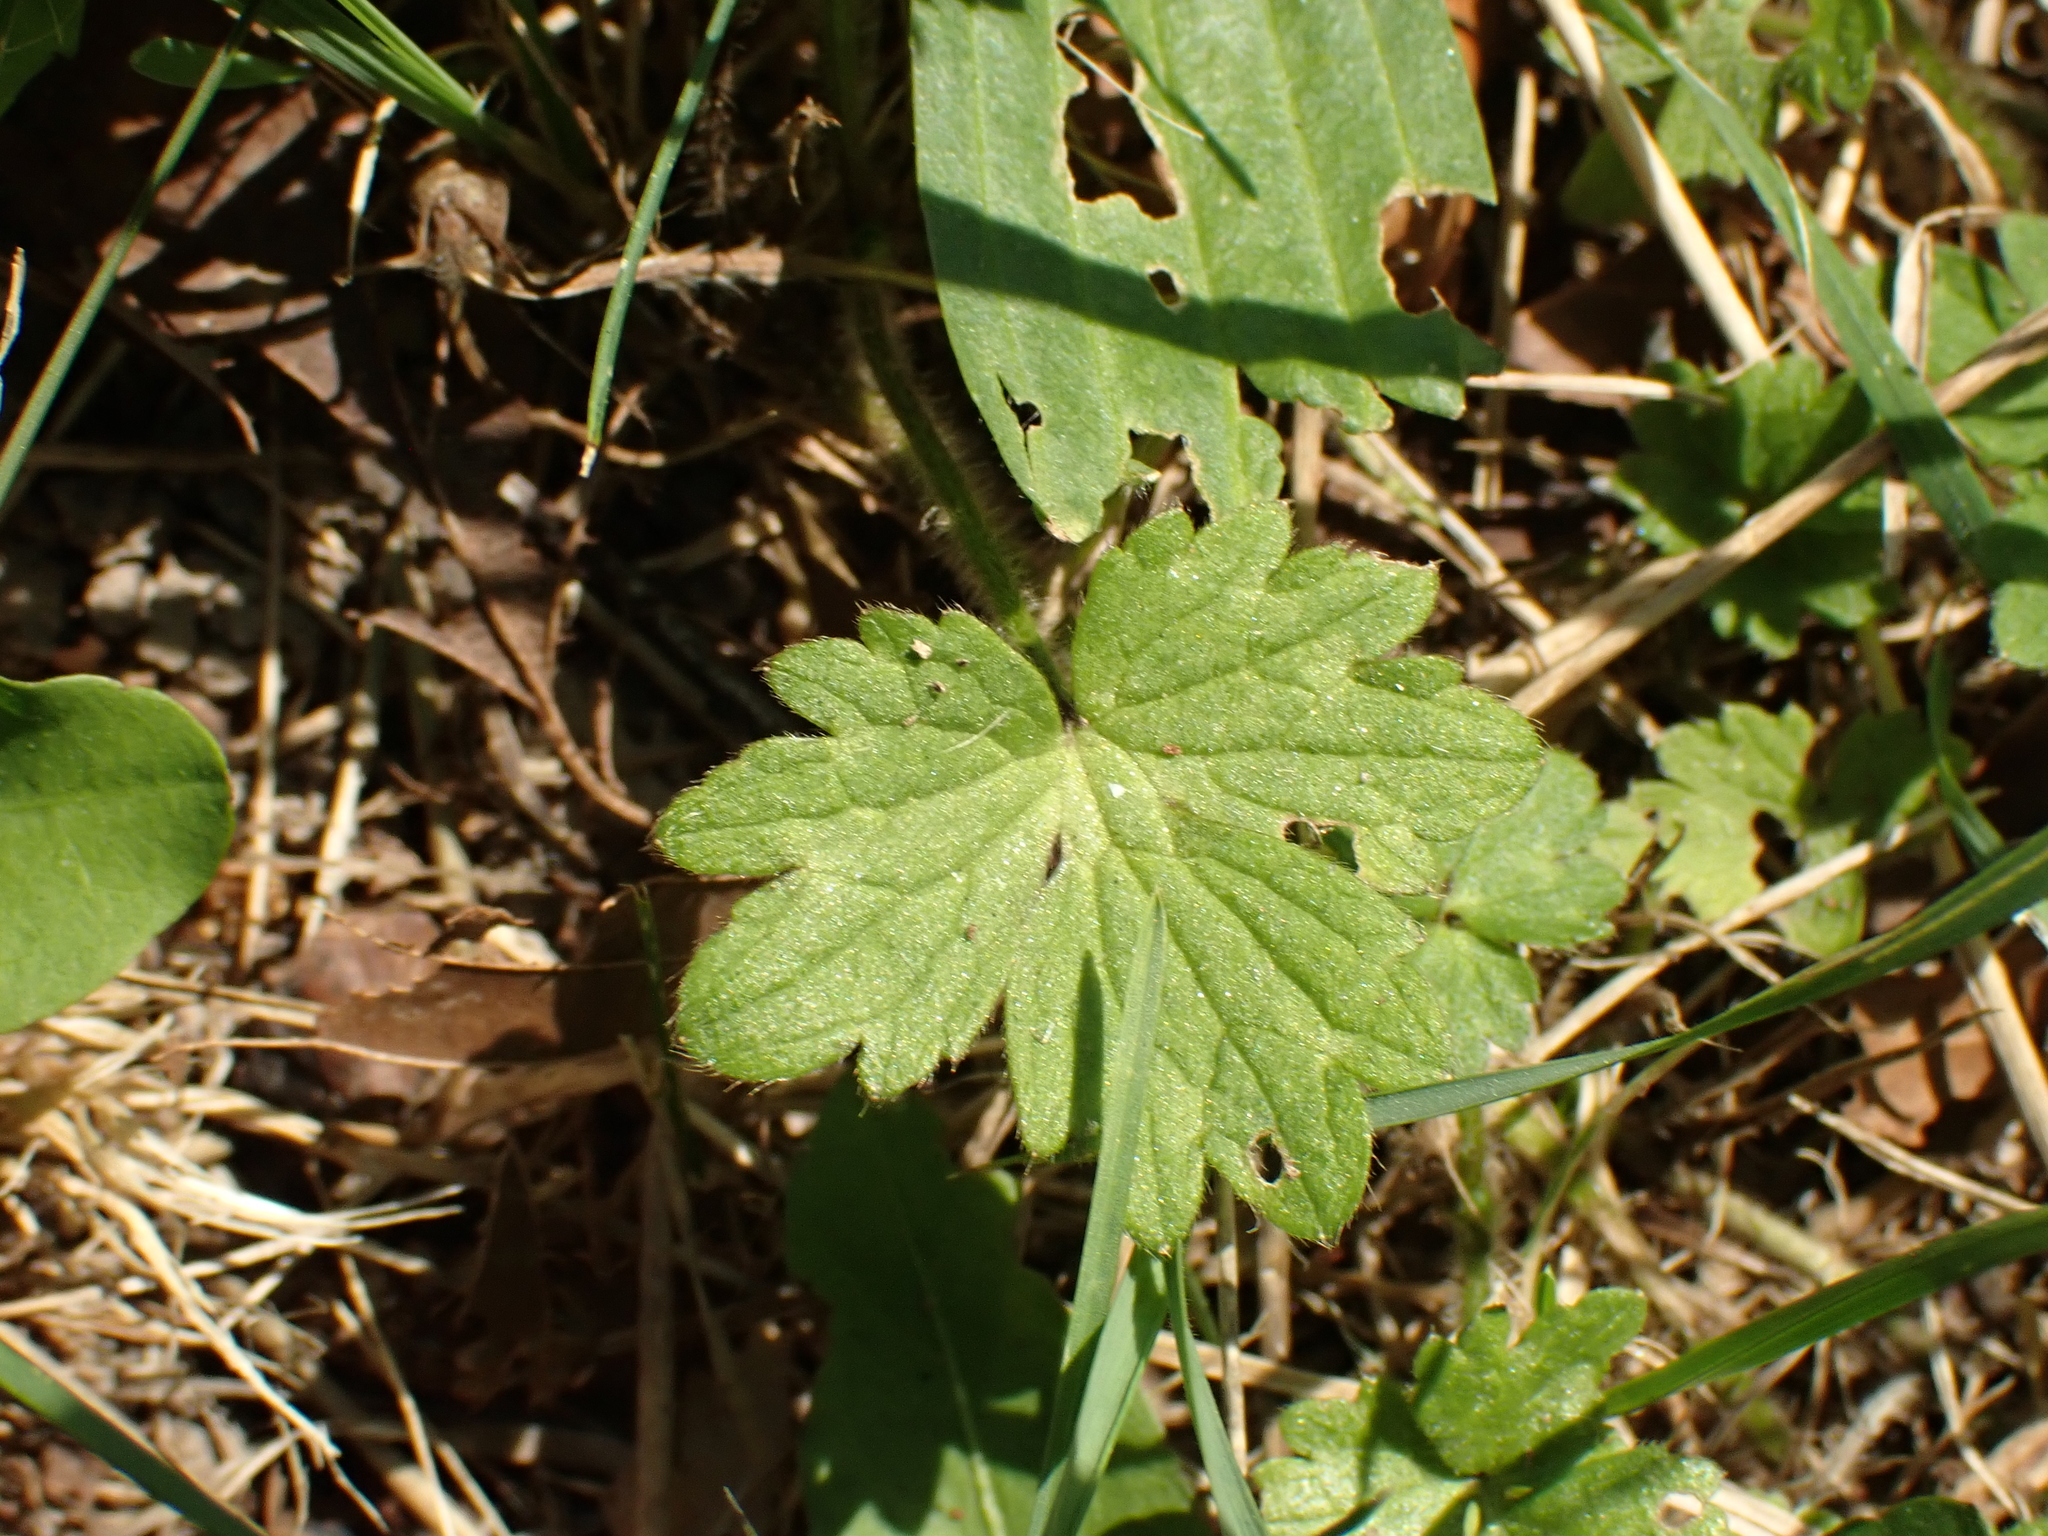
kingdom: Plantae
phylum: Tracheophyta
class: Magnoliopsida
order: Ranunculales
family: Ranunculaceae
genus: Ranunculus
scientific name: Ranunculus repens
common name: Creeping buttercup
